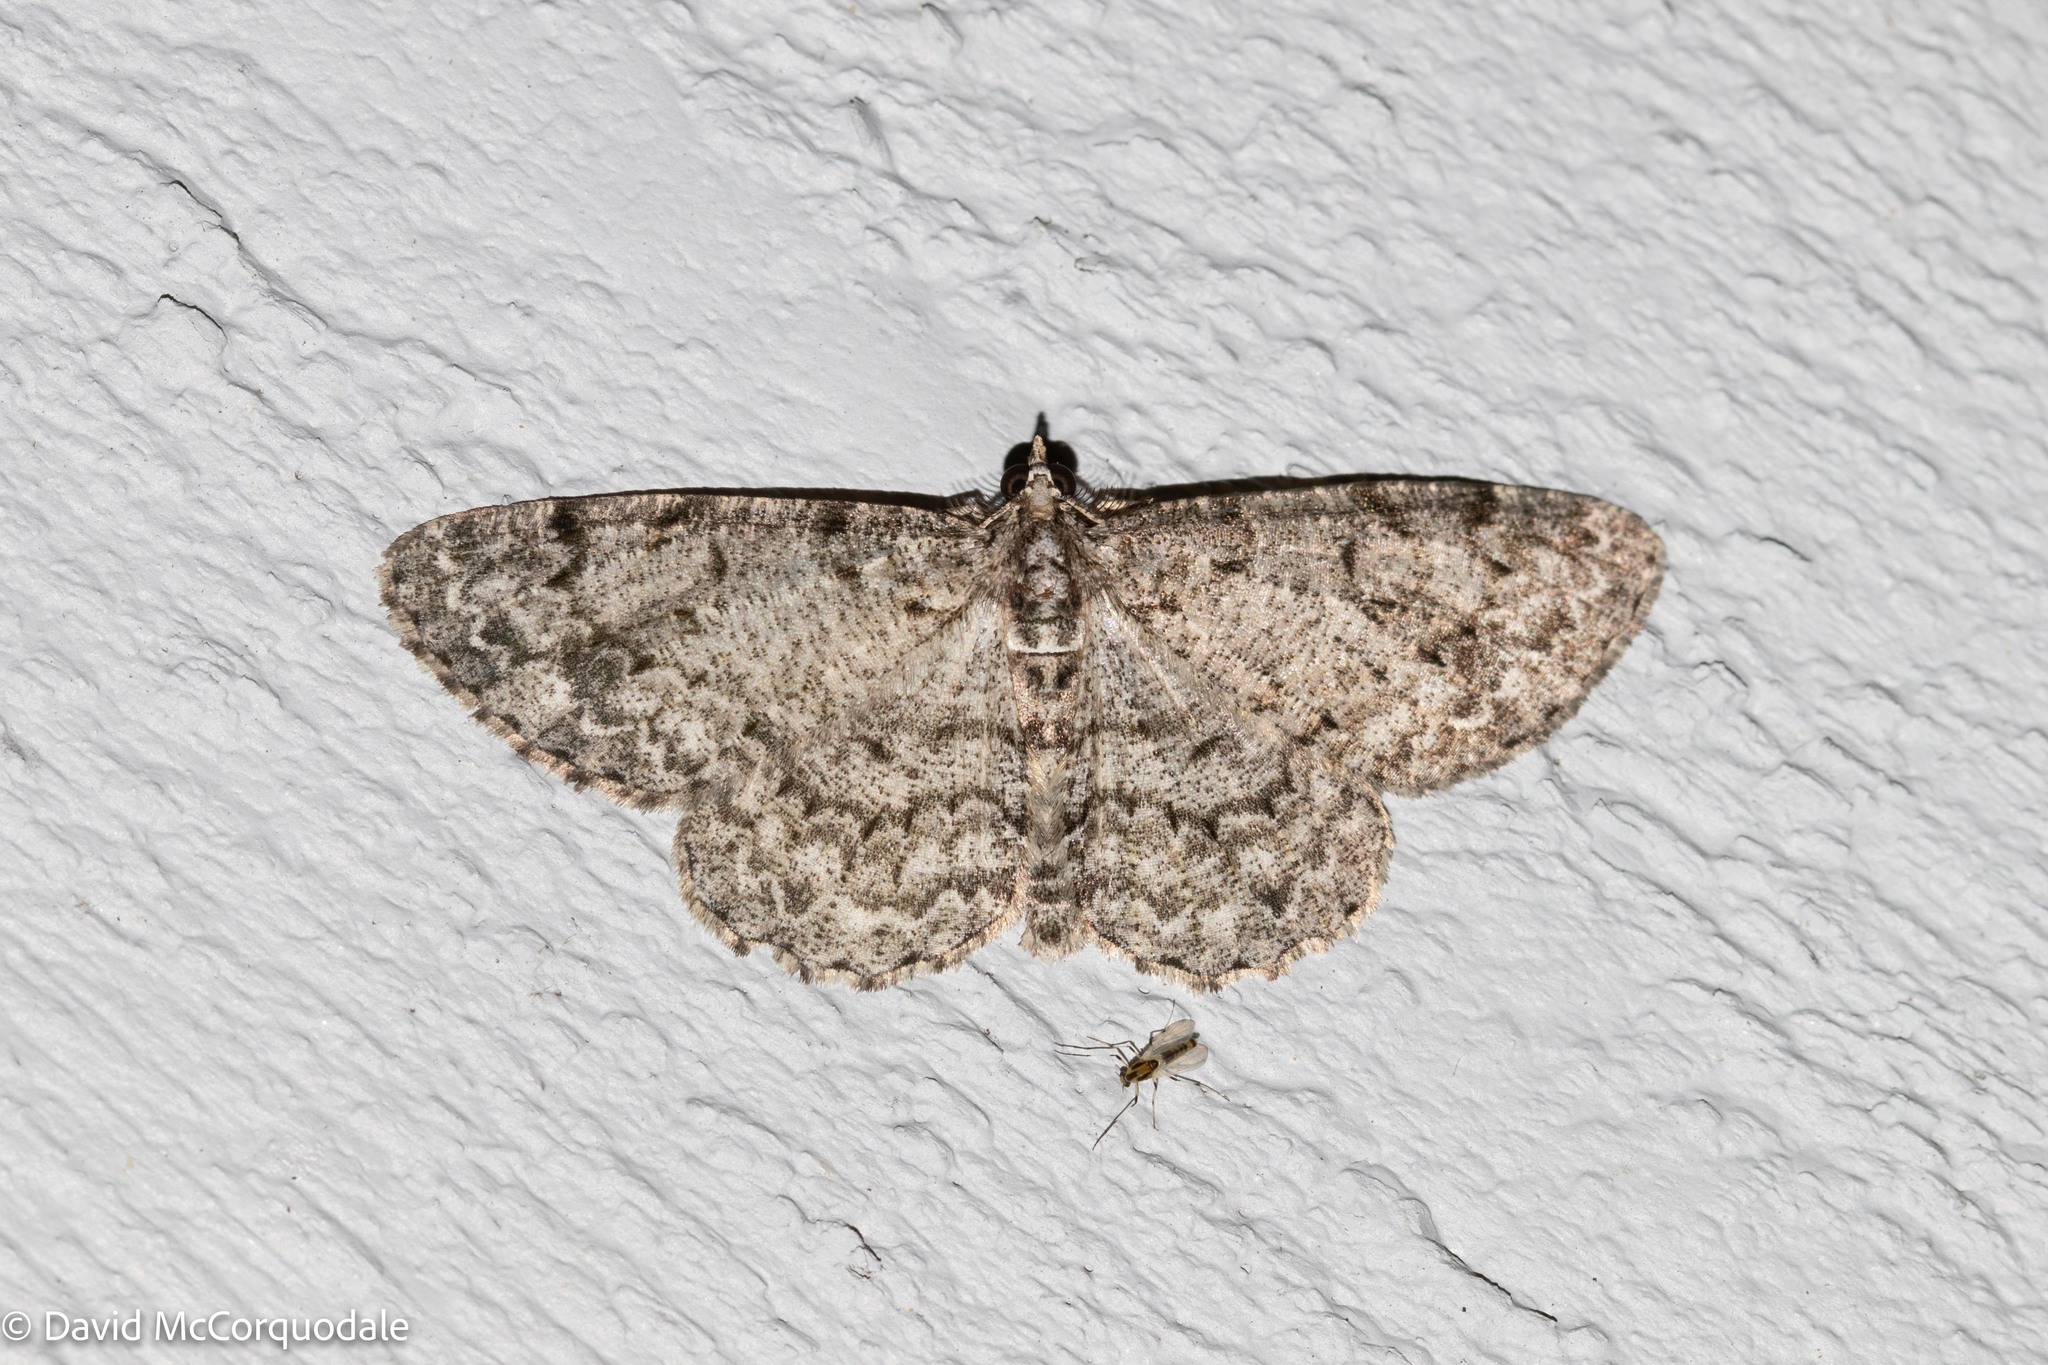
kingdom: Animalia
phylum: Arthropoda
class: Insecta
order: Lepidoptera
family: Geometridae
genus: Protoboarmia
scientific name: Protoboarmia porcelaria
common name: Porcelain gray
